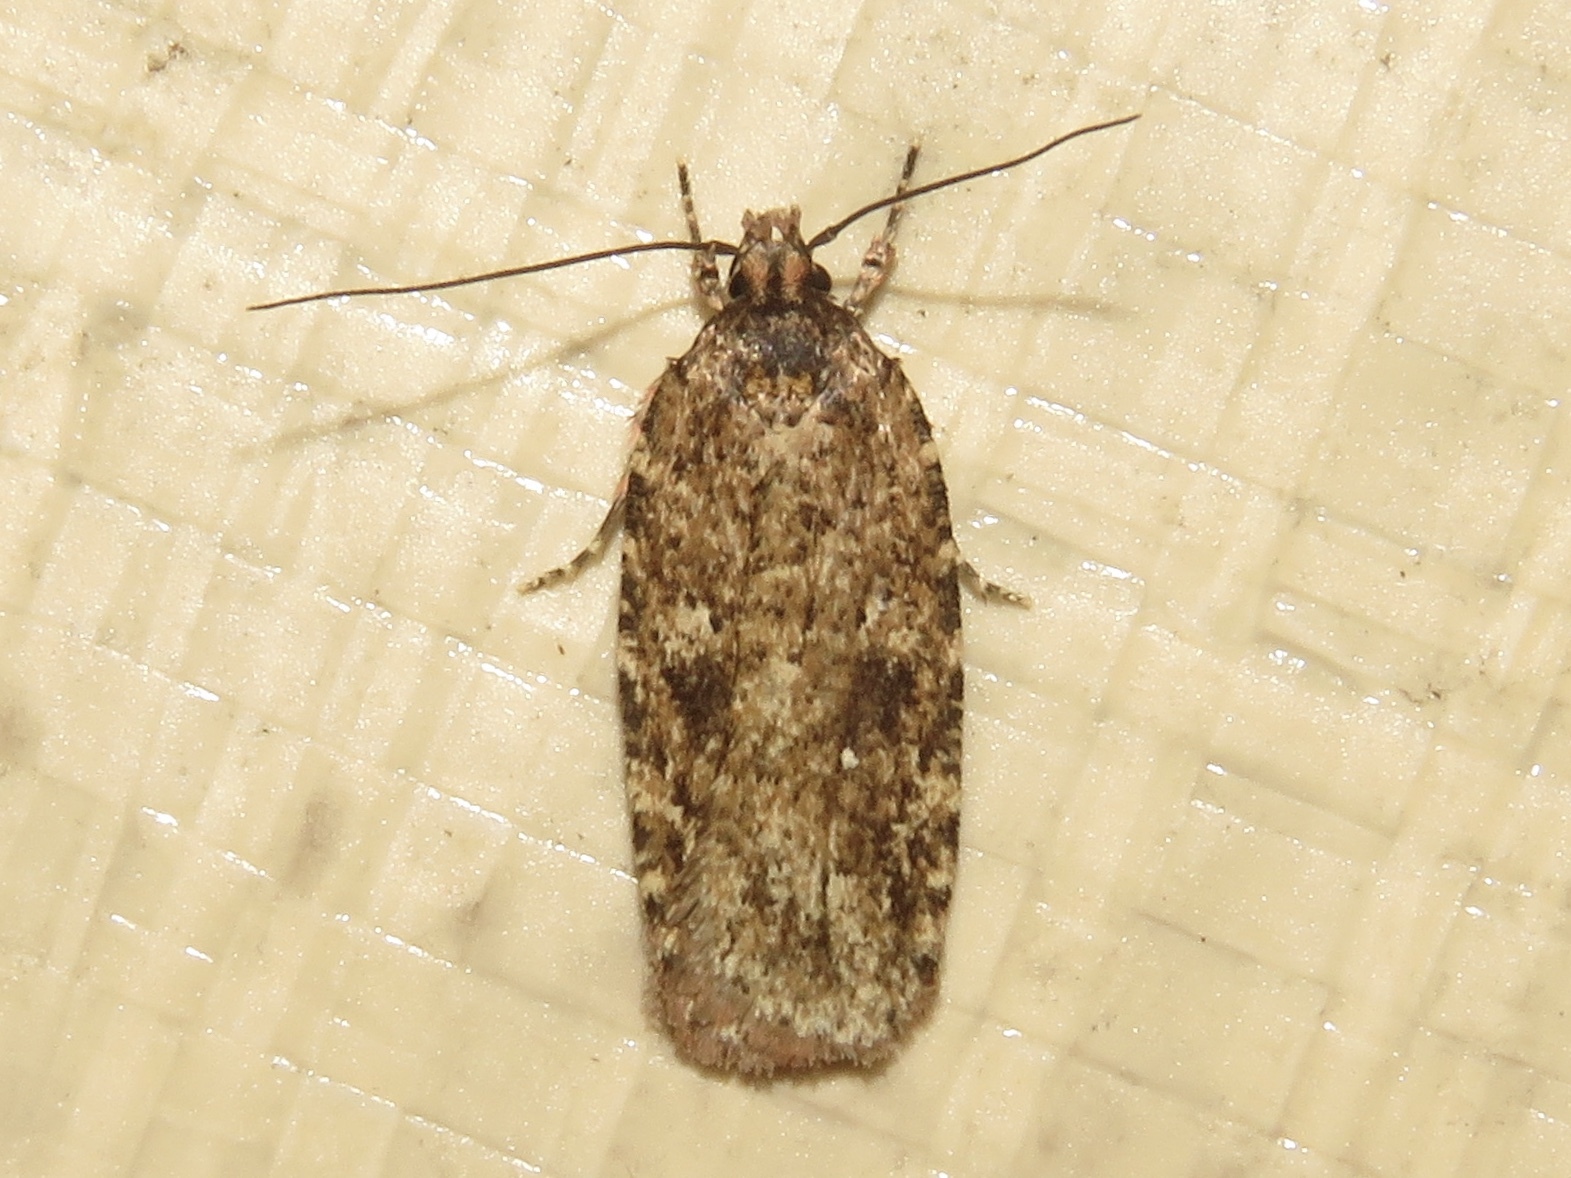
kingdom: Animalia
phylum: Arthropoda
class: Insecta
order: Lepidoptera
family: Depressariidae
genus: Agonopterix
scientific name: Agonopterix pulvipennella
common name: Goldenrod leafffolder
